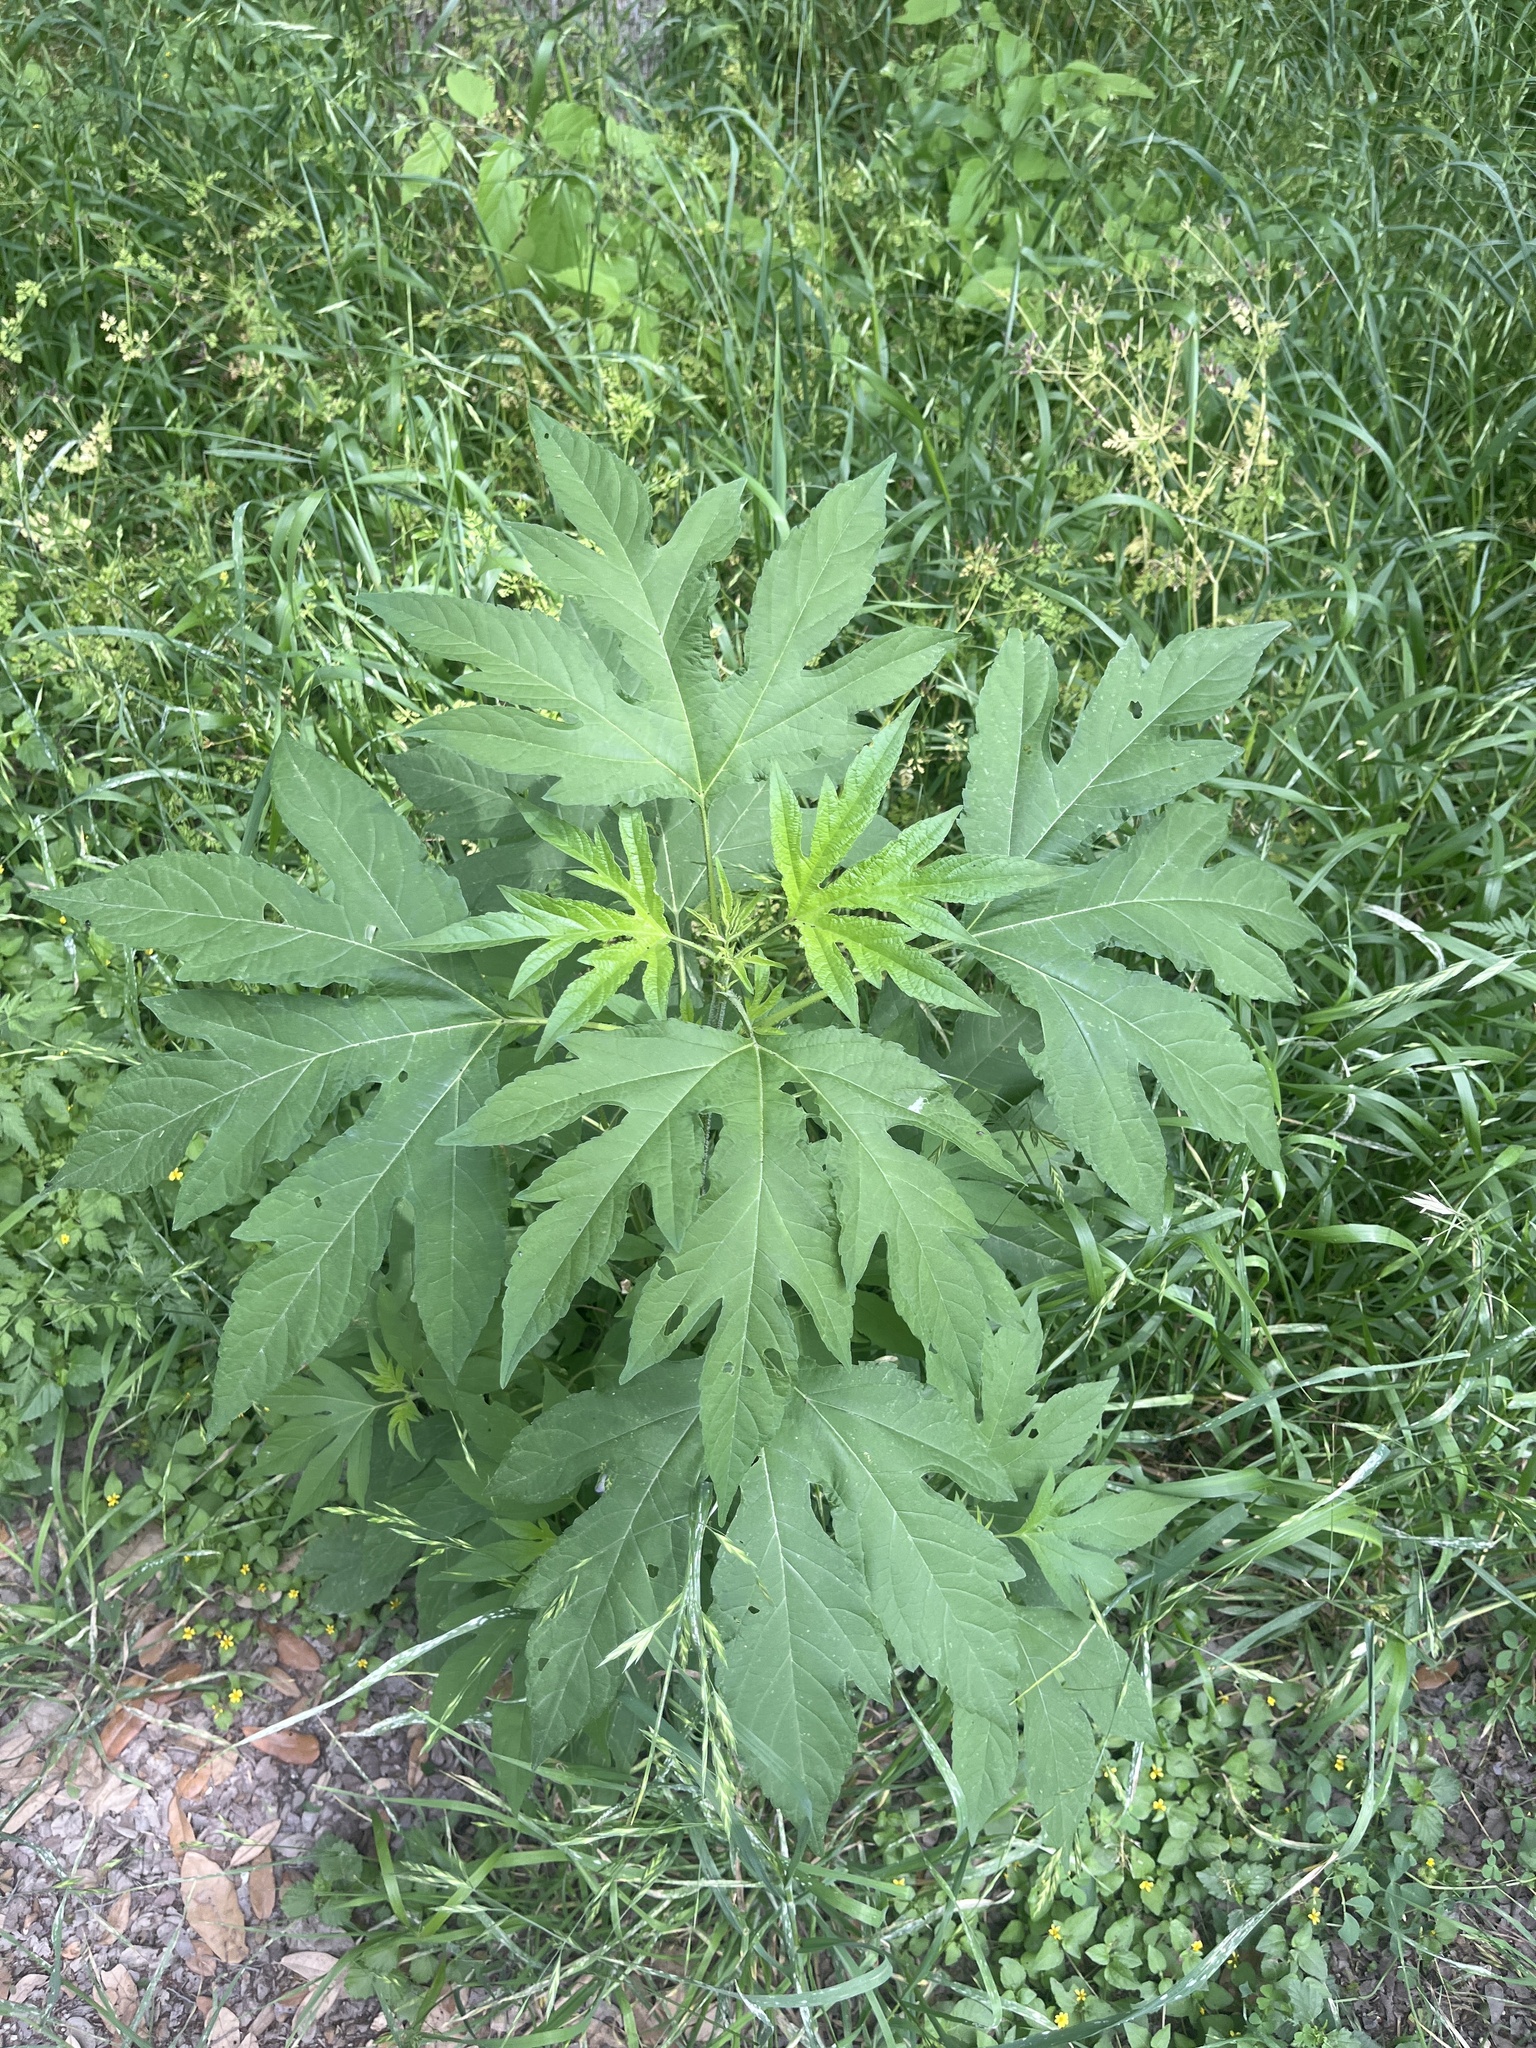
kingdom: Plantae
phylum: Tracheophyta
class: Magnoliopsida
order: Asterales
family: Asteraceae
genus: Ambrosia
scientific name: Ambrosia trifida
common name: Giant ragweed
